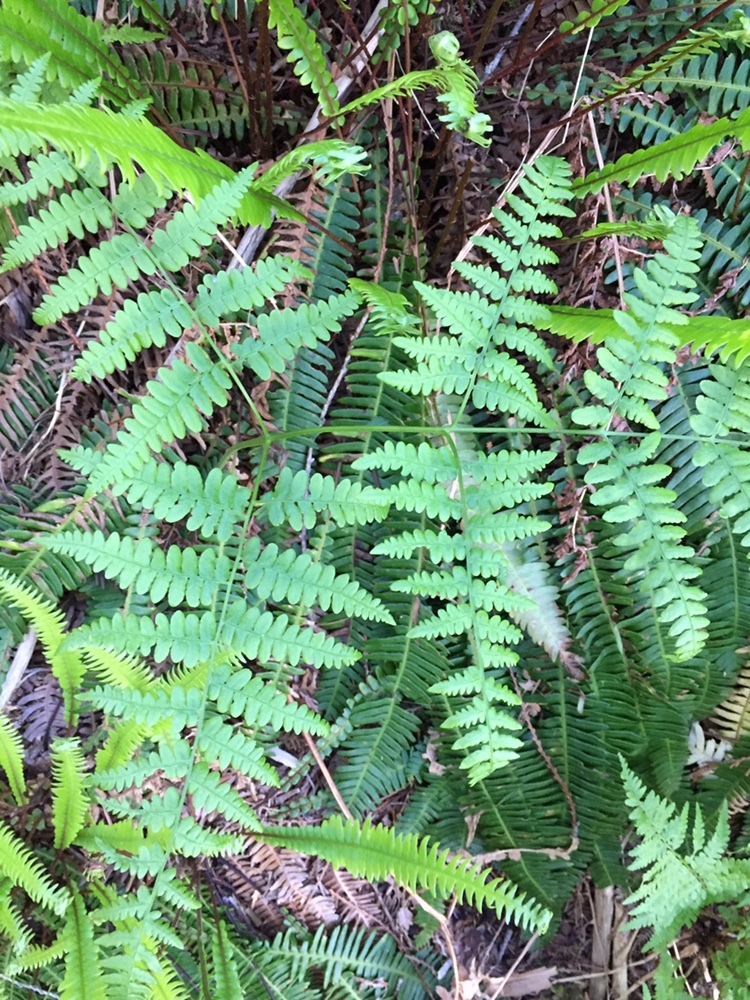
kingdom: Plantae
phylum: Tracheophyta
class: Polypodiopsida
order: Polypodiales
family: Dennstaedtiaceae
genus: Pteridium
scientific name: Pteridium aquilinum
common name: Bracken
